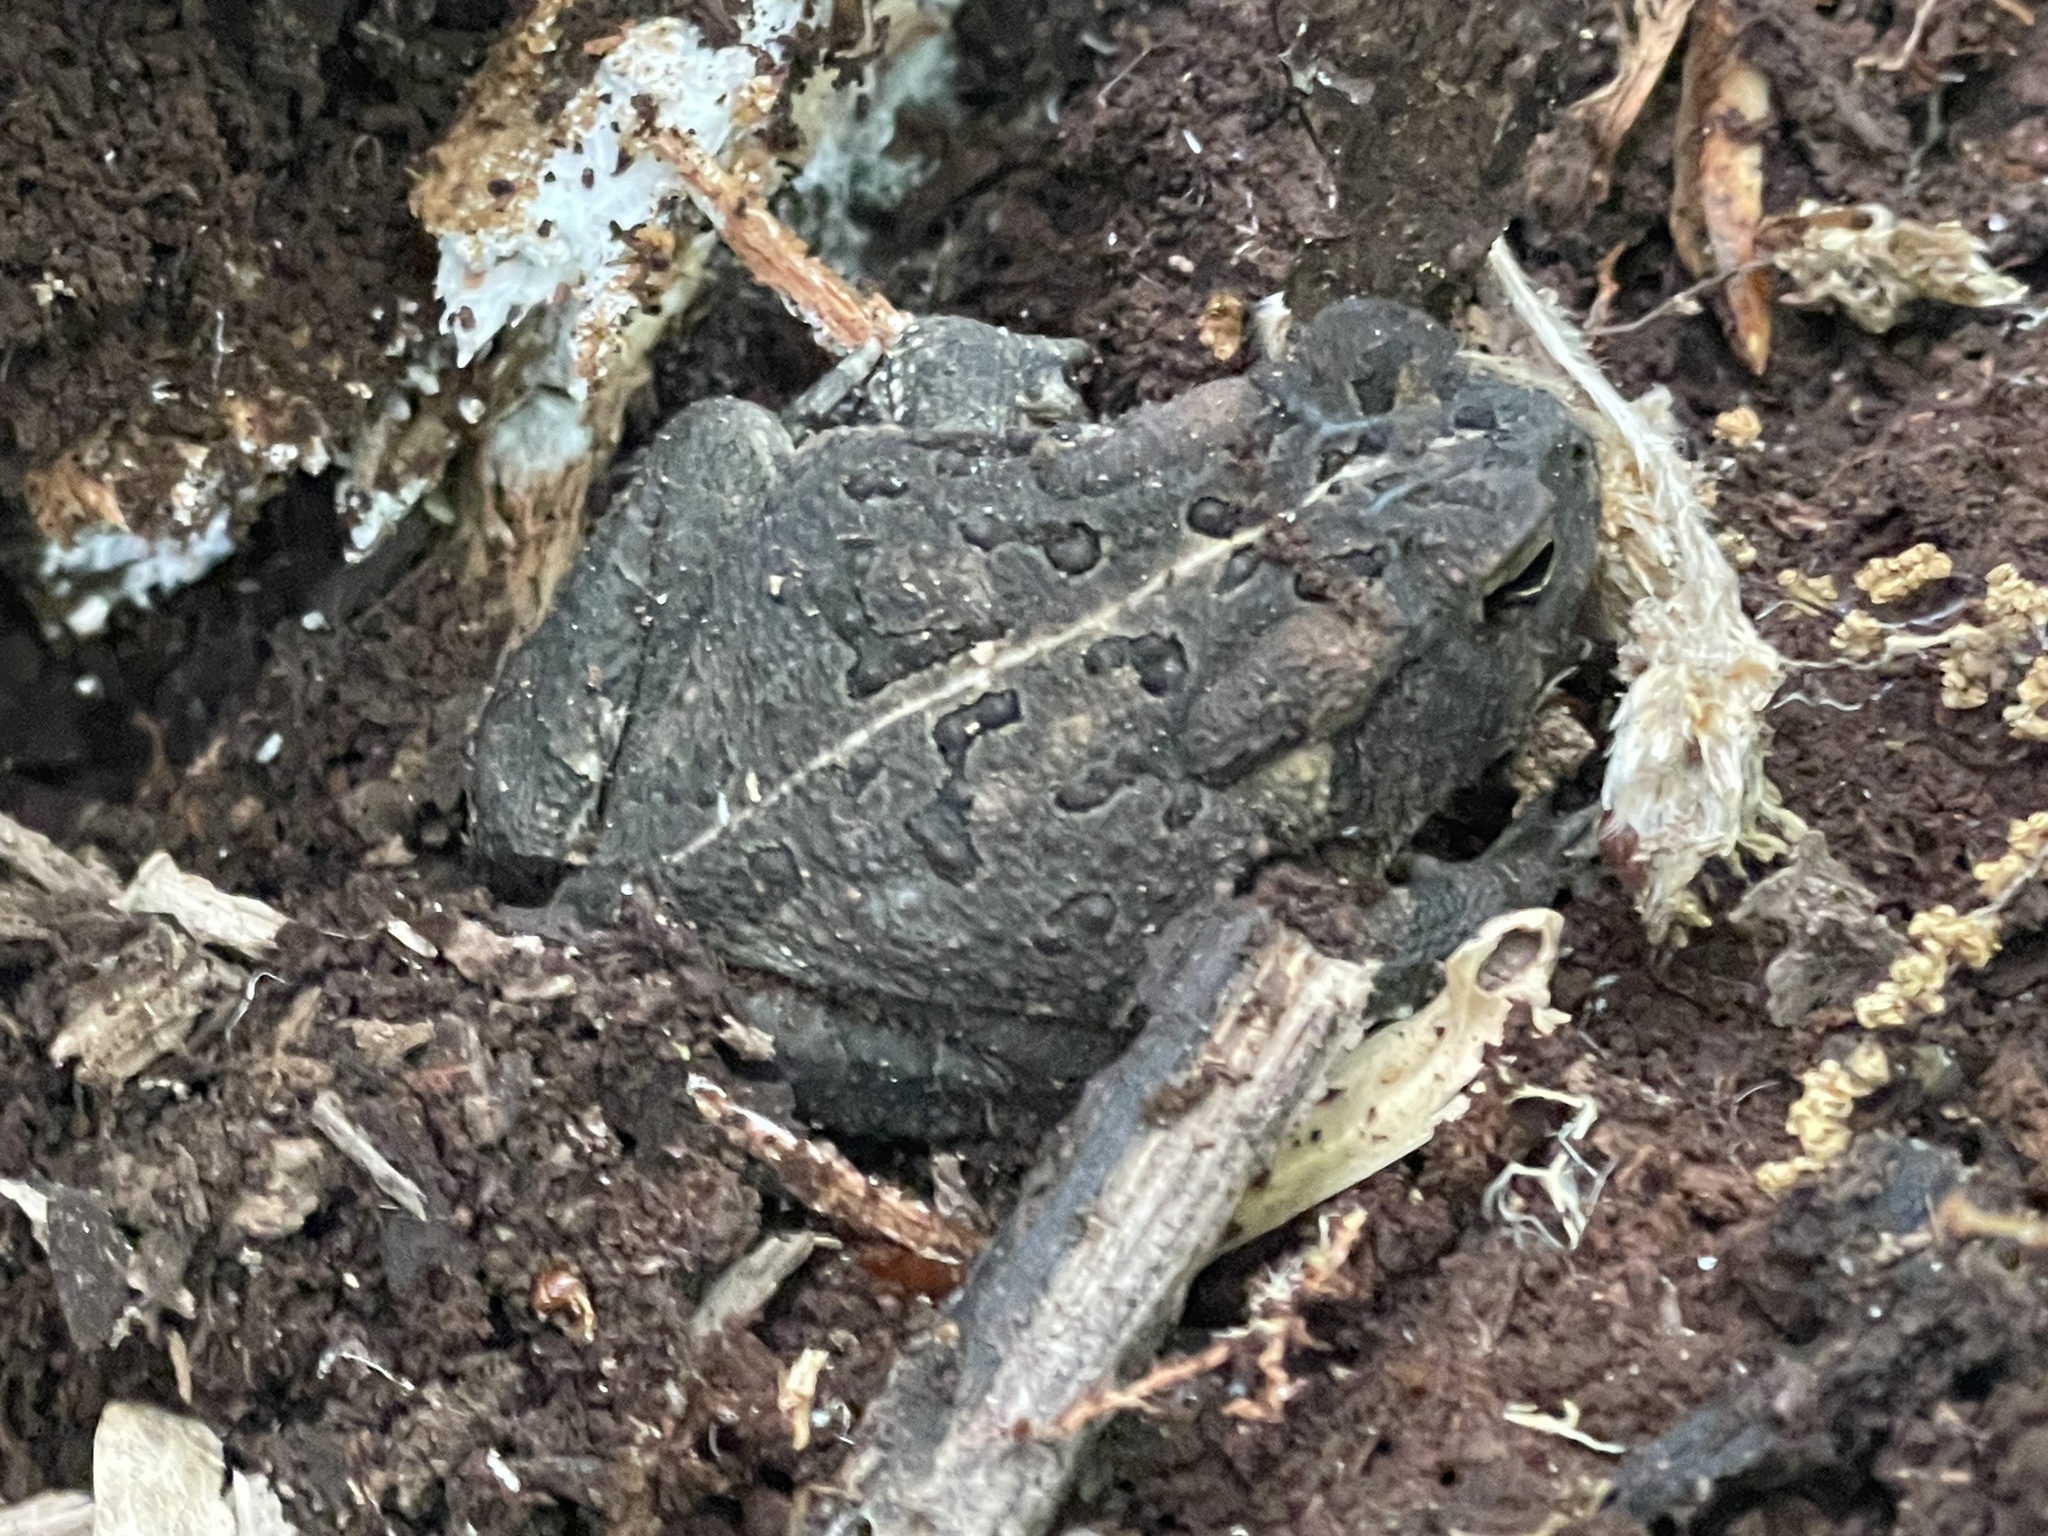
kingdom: Animalia
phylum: Chordata
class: Amphibia
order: Anura
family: Bufonidae
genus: Anaxyrus
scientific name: Anaxyrus fowleri
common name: Fowler's toad
